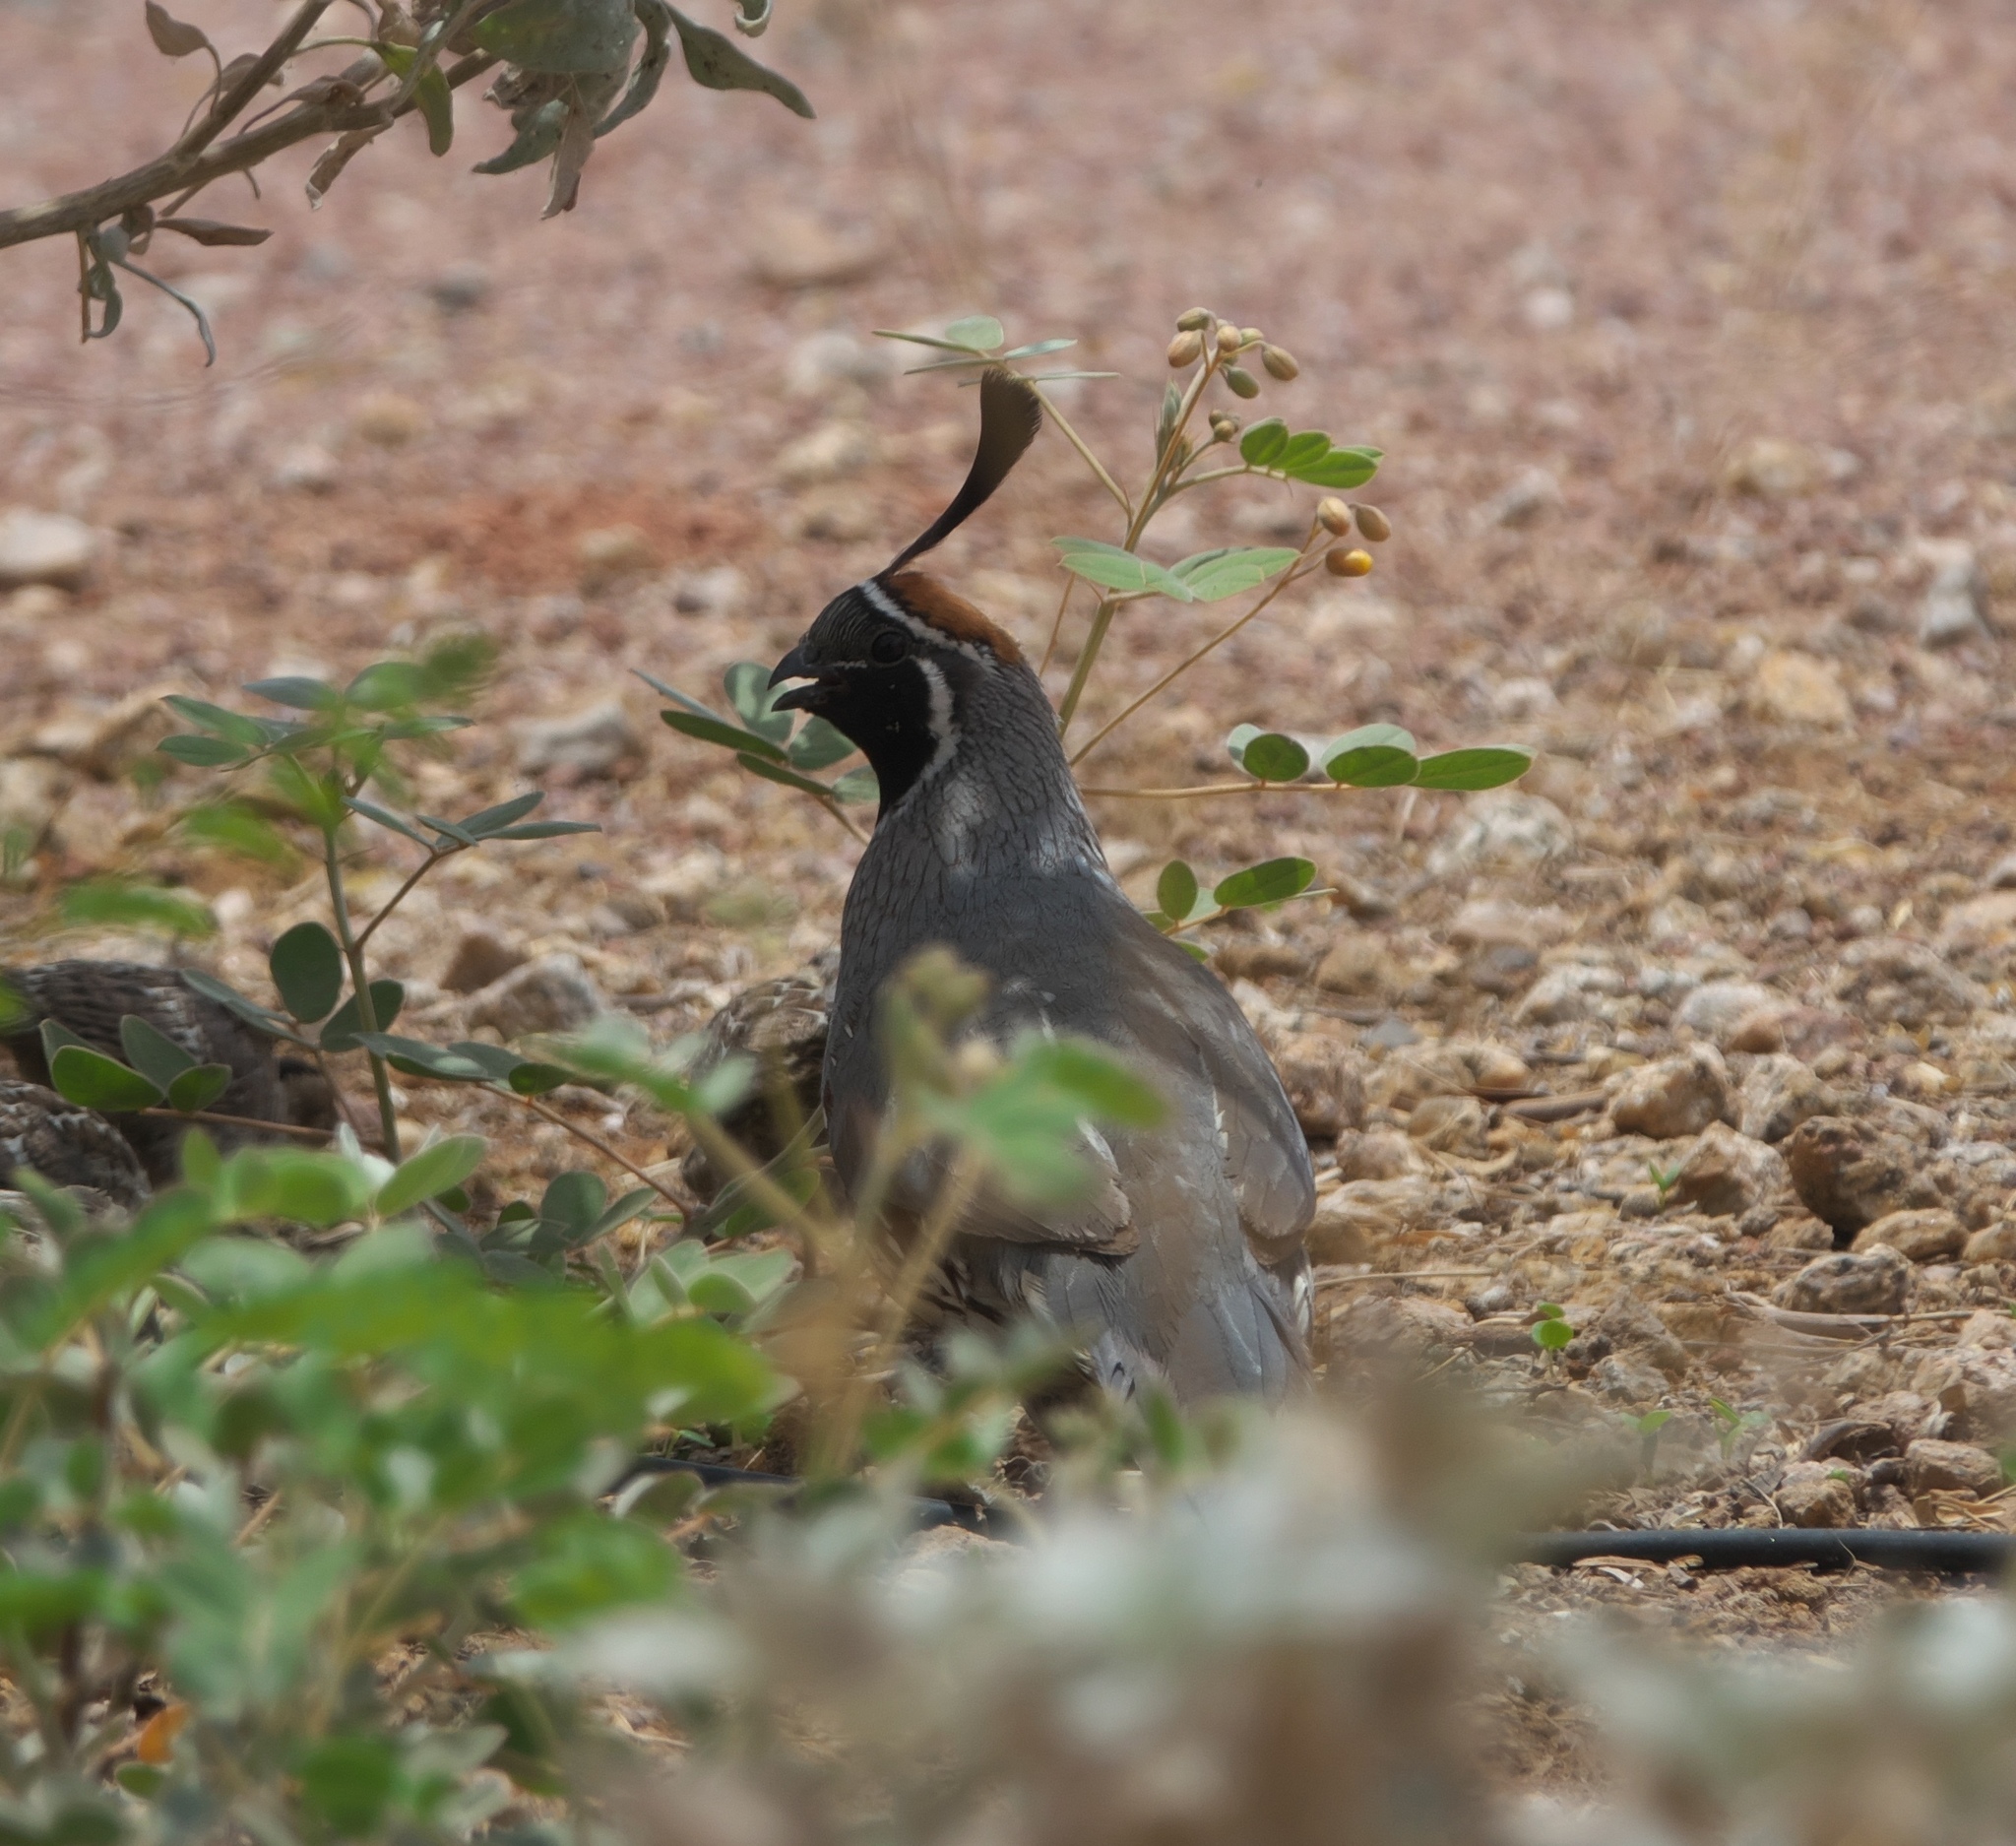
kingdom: Animalia
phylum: Chordata
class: Aves
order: Galliformes
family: Odontophoridae
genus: Callipepla
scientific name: Callipepla gambelii
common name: Gambel's quail
